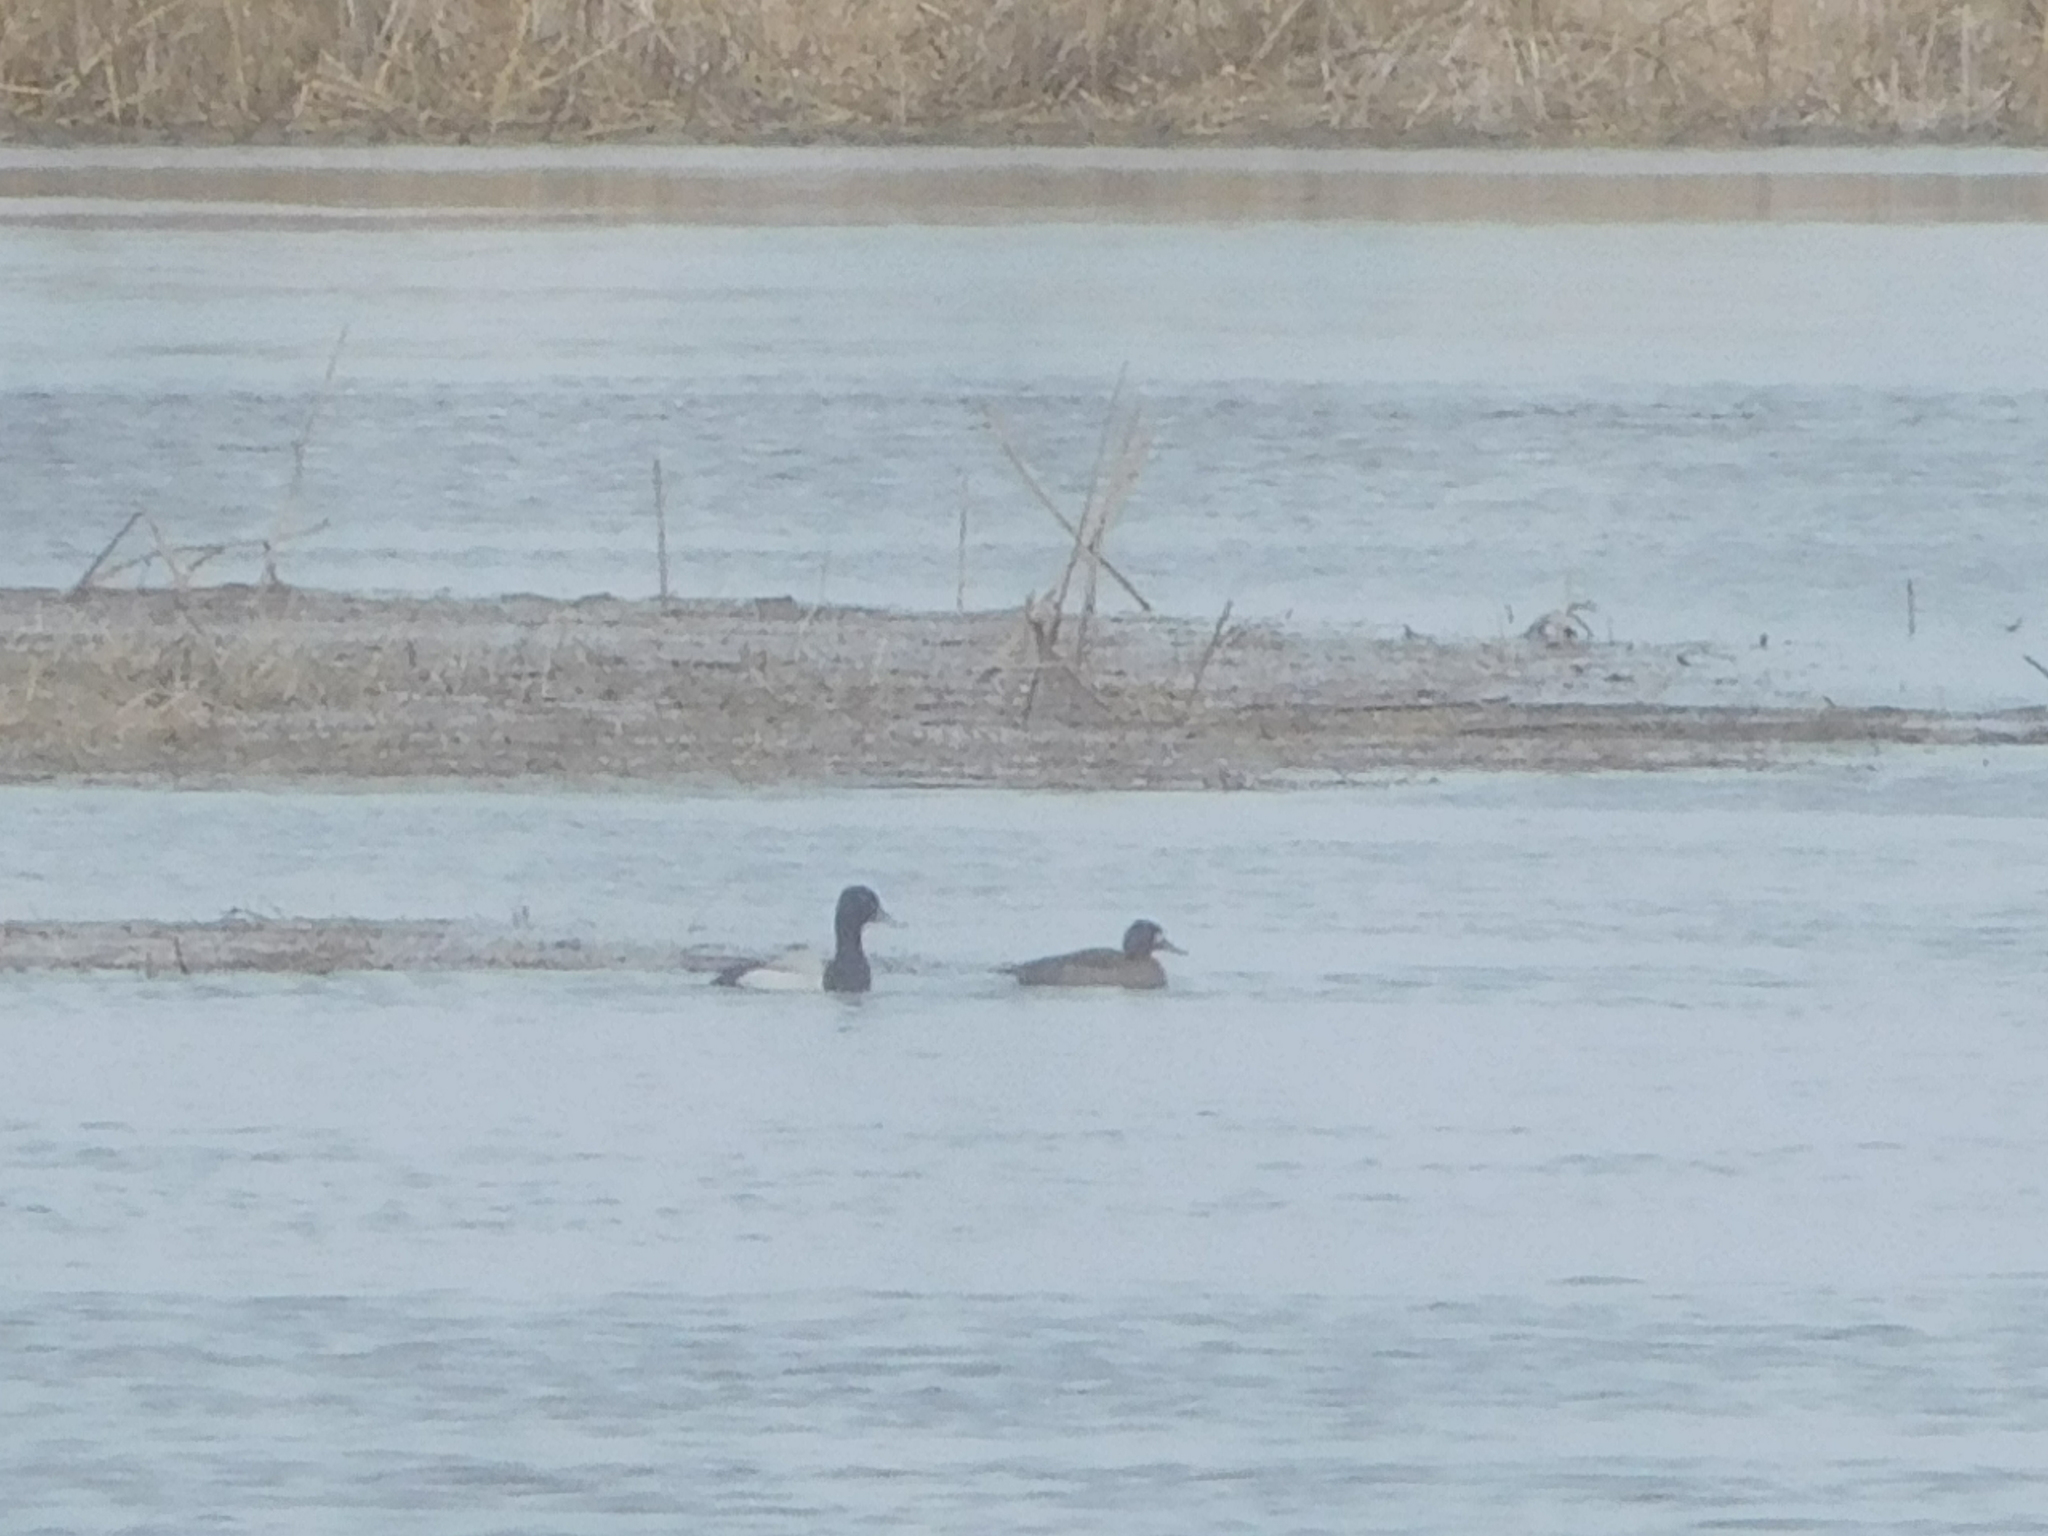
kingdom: Animalia
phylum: Chordata
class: Aves
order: Anseriformes
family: Anatidae
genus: Aythya
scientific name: Aythya affinis
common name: Lesser scaup
